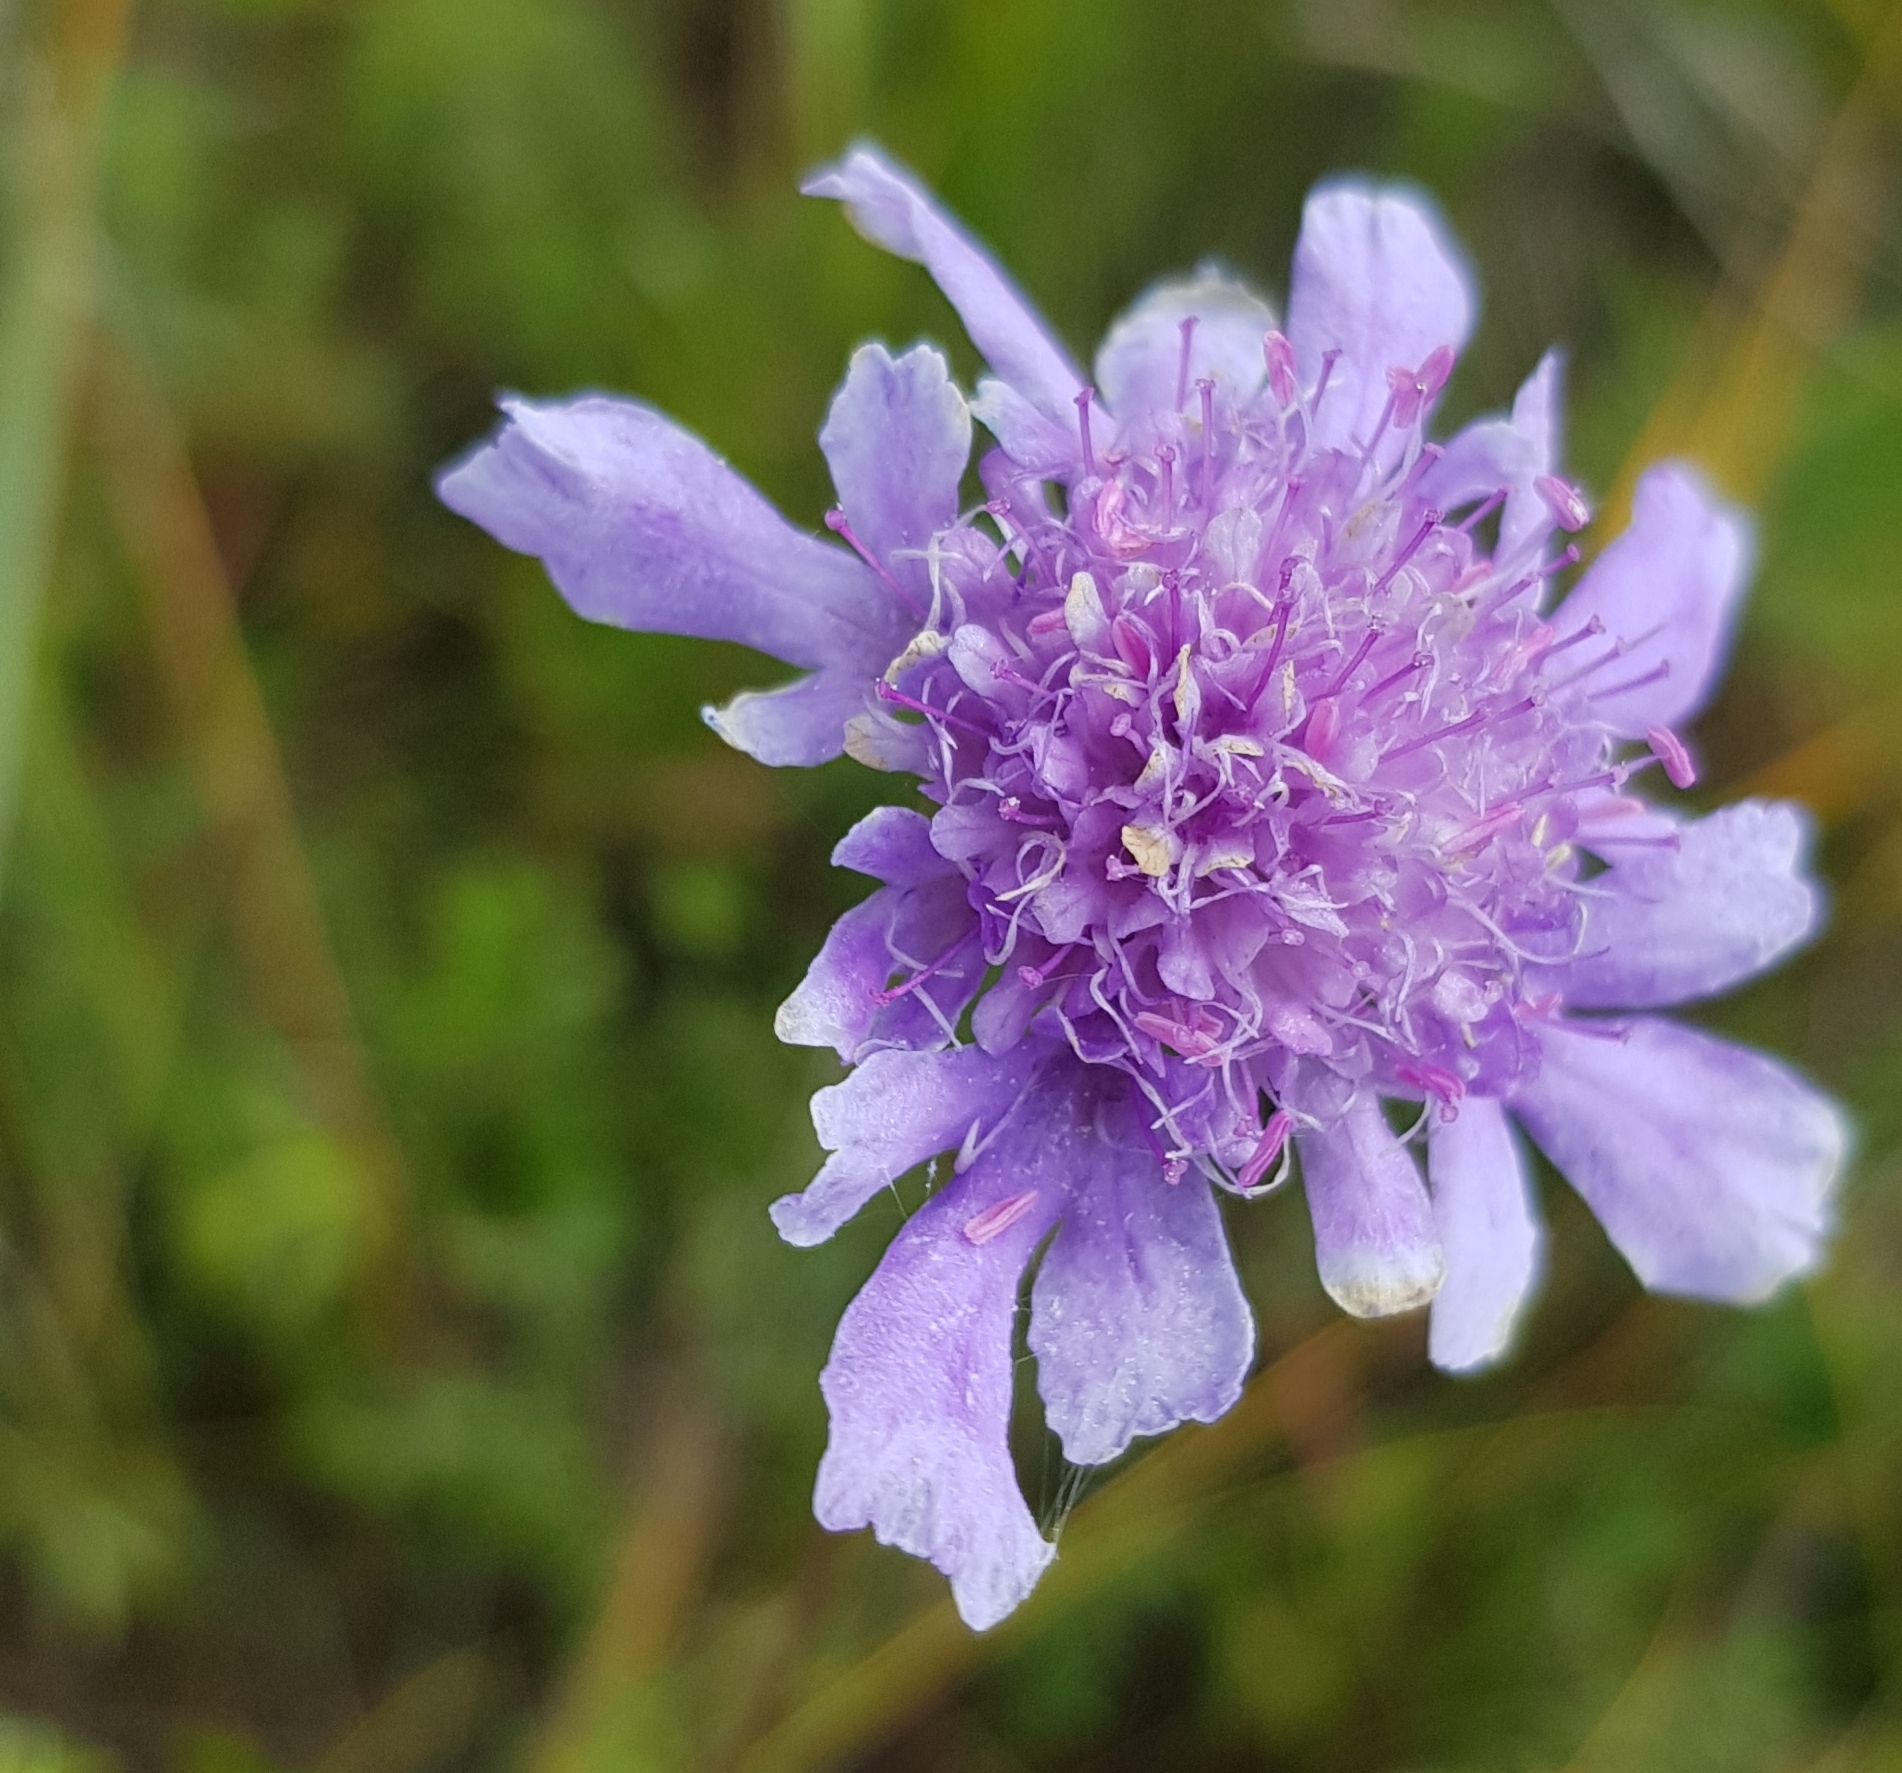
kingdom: Plantae
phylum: Tracheophyta
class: Magnoliopsida
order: Dipsacales
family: Caprifoliaceae
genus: Scabiosa
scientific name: Scabiosa comosa
